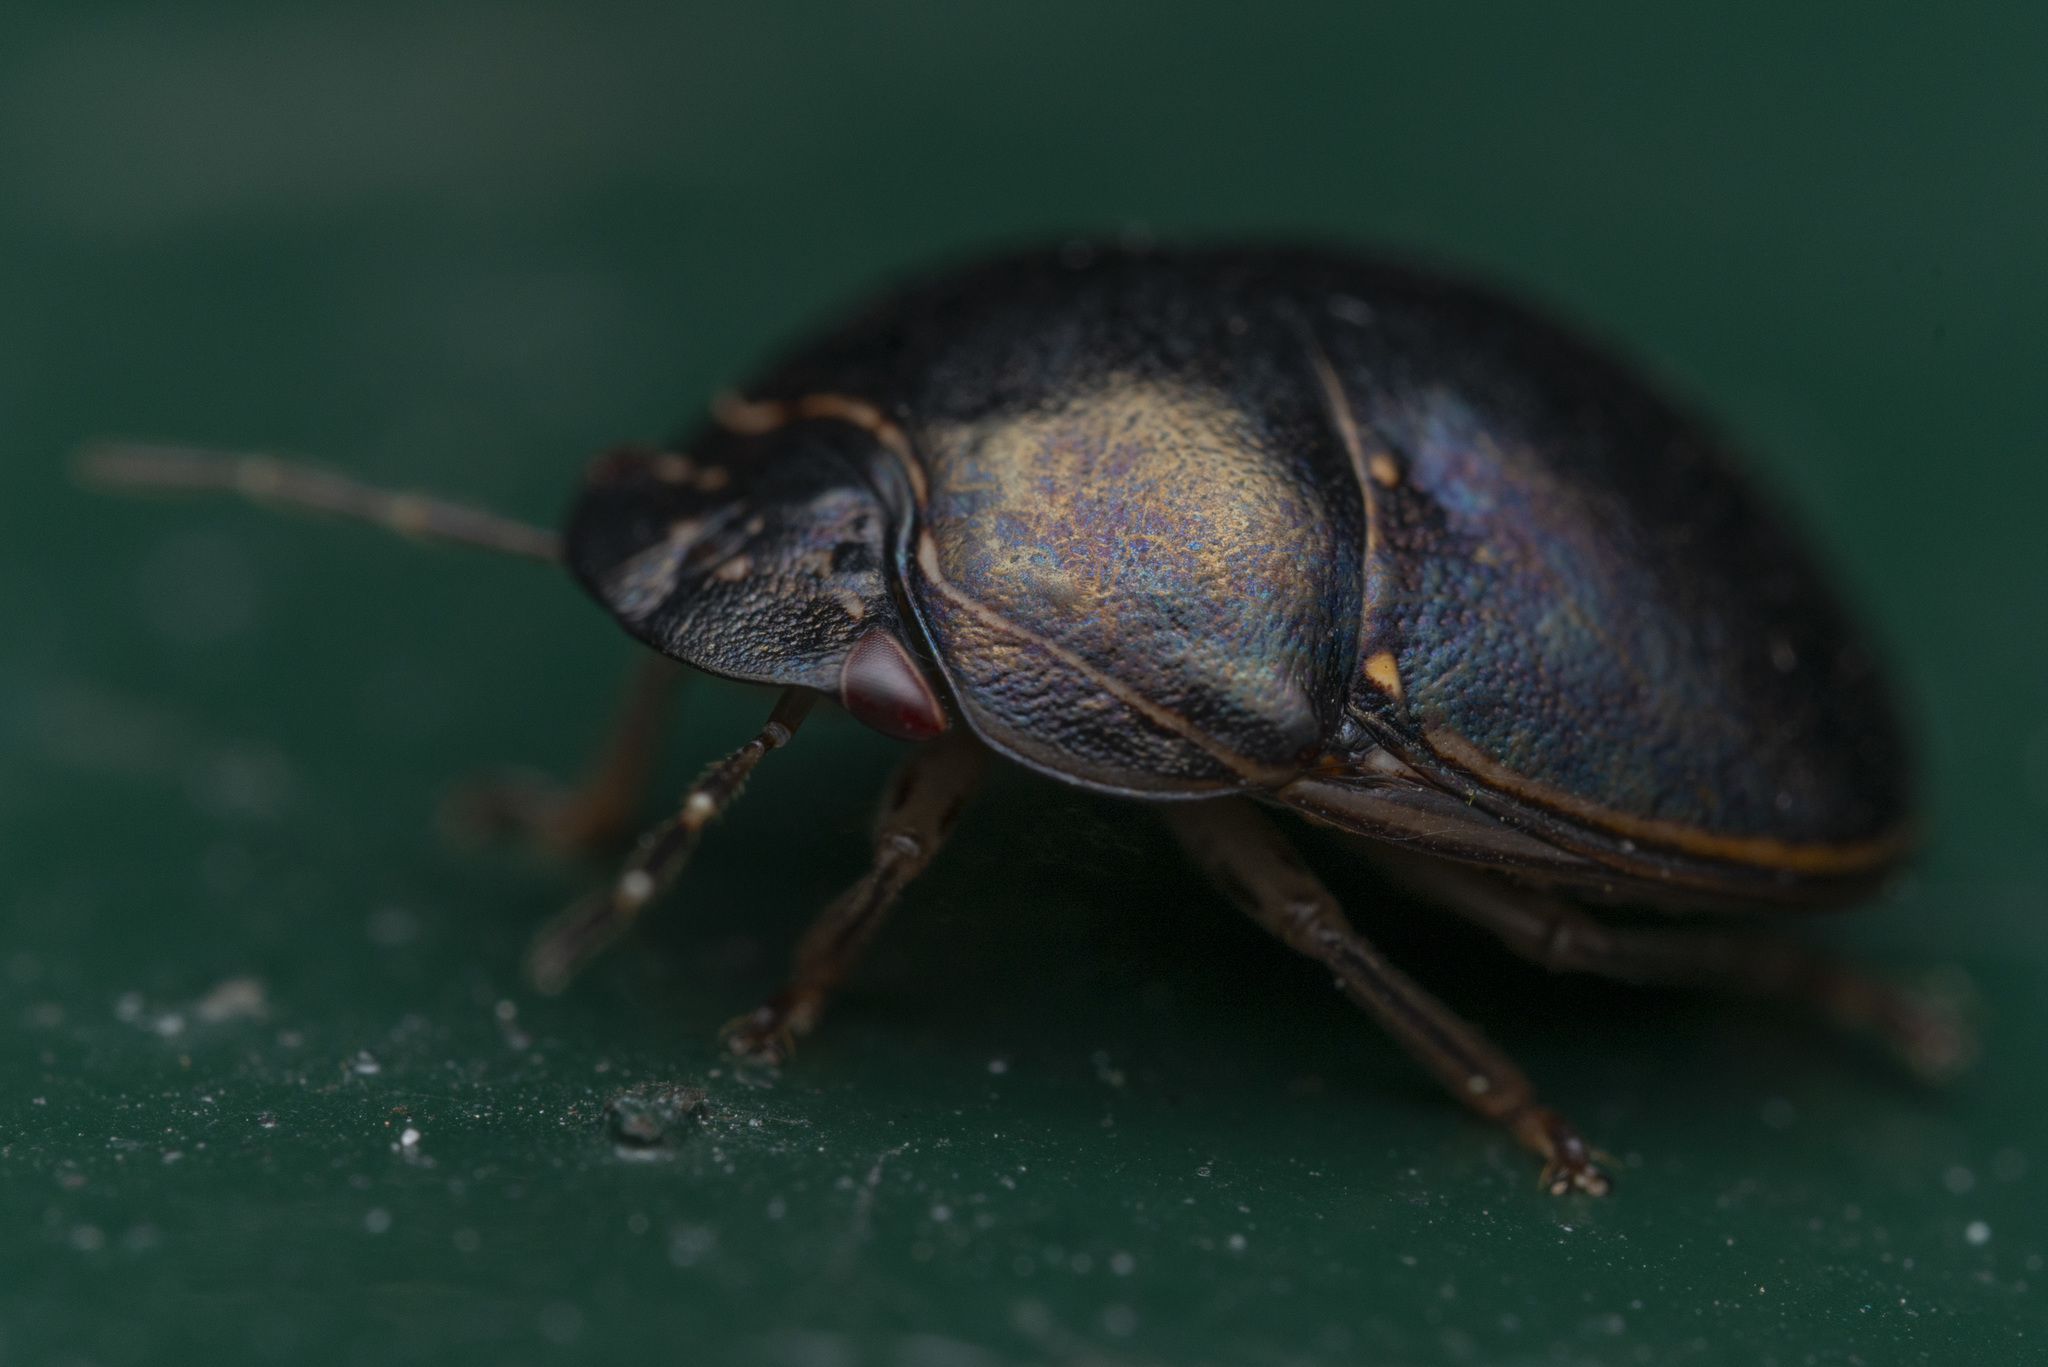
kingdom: Animalia
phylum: Arthropoda
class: Insecta
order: Hemiptera
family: Plataspidae
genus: Brachyplatys
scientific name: Brachyplatys
